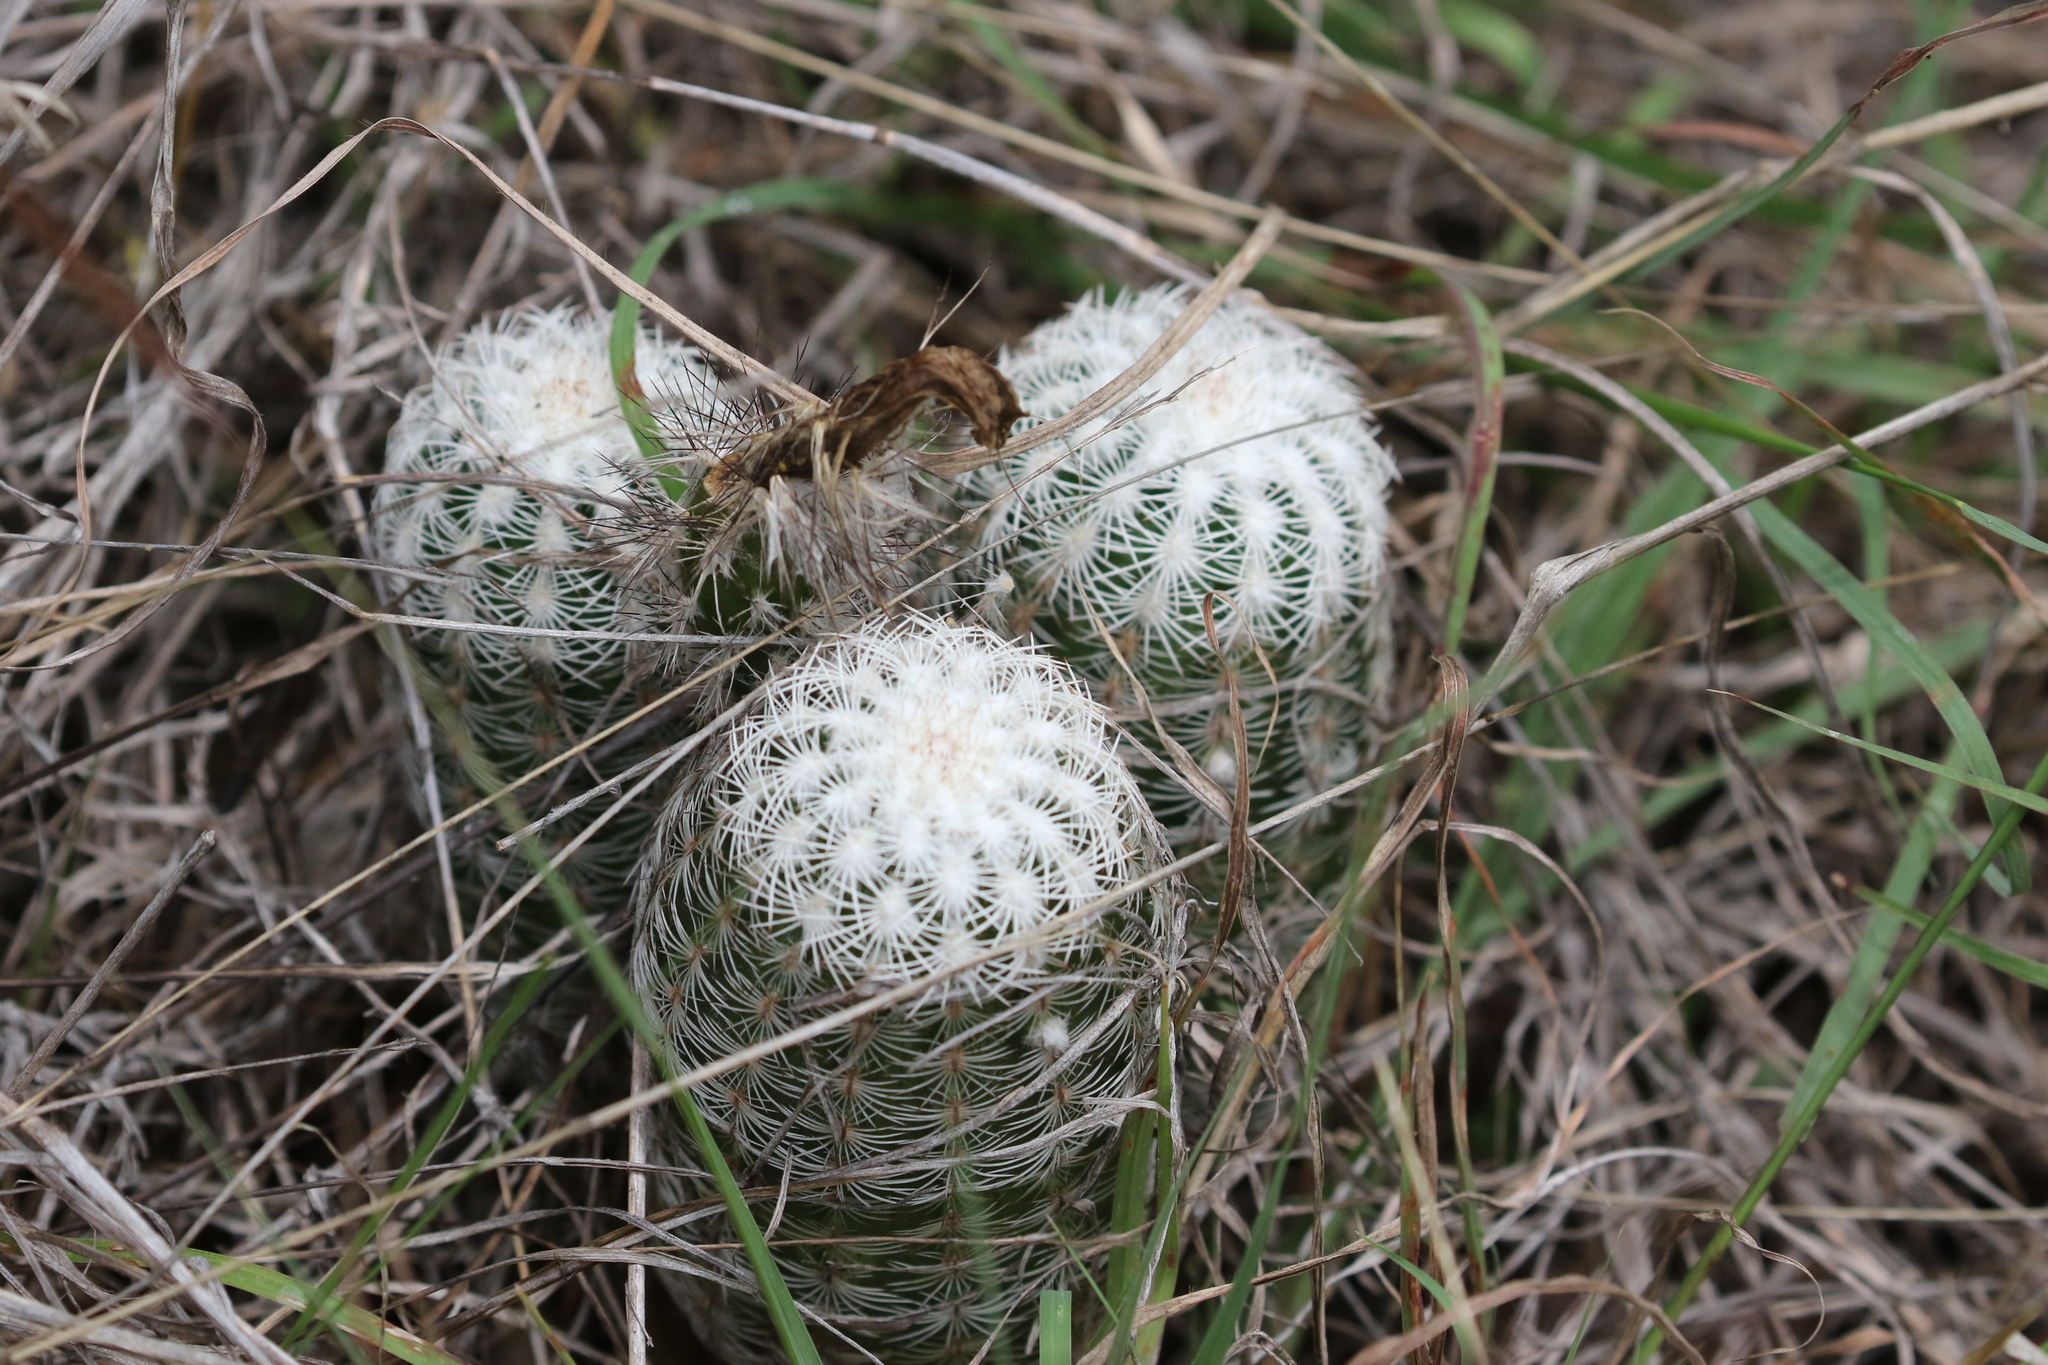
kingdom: Plantae
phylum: Tracheophyta
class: Magnoliopsida
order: Caryophyllales
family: Cactaceae
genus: Echinocereus
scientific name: Echinocereus reichenbachii
